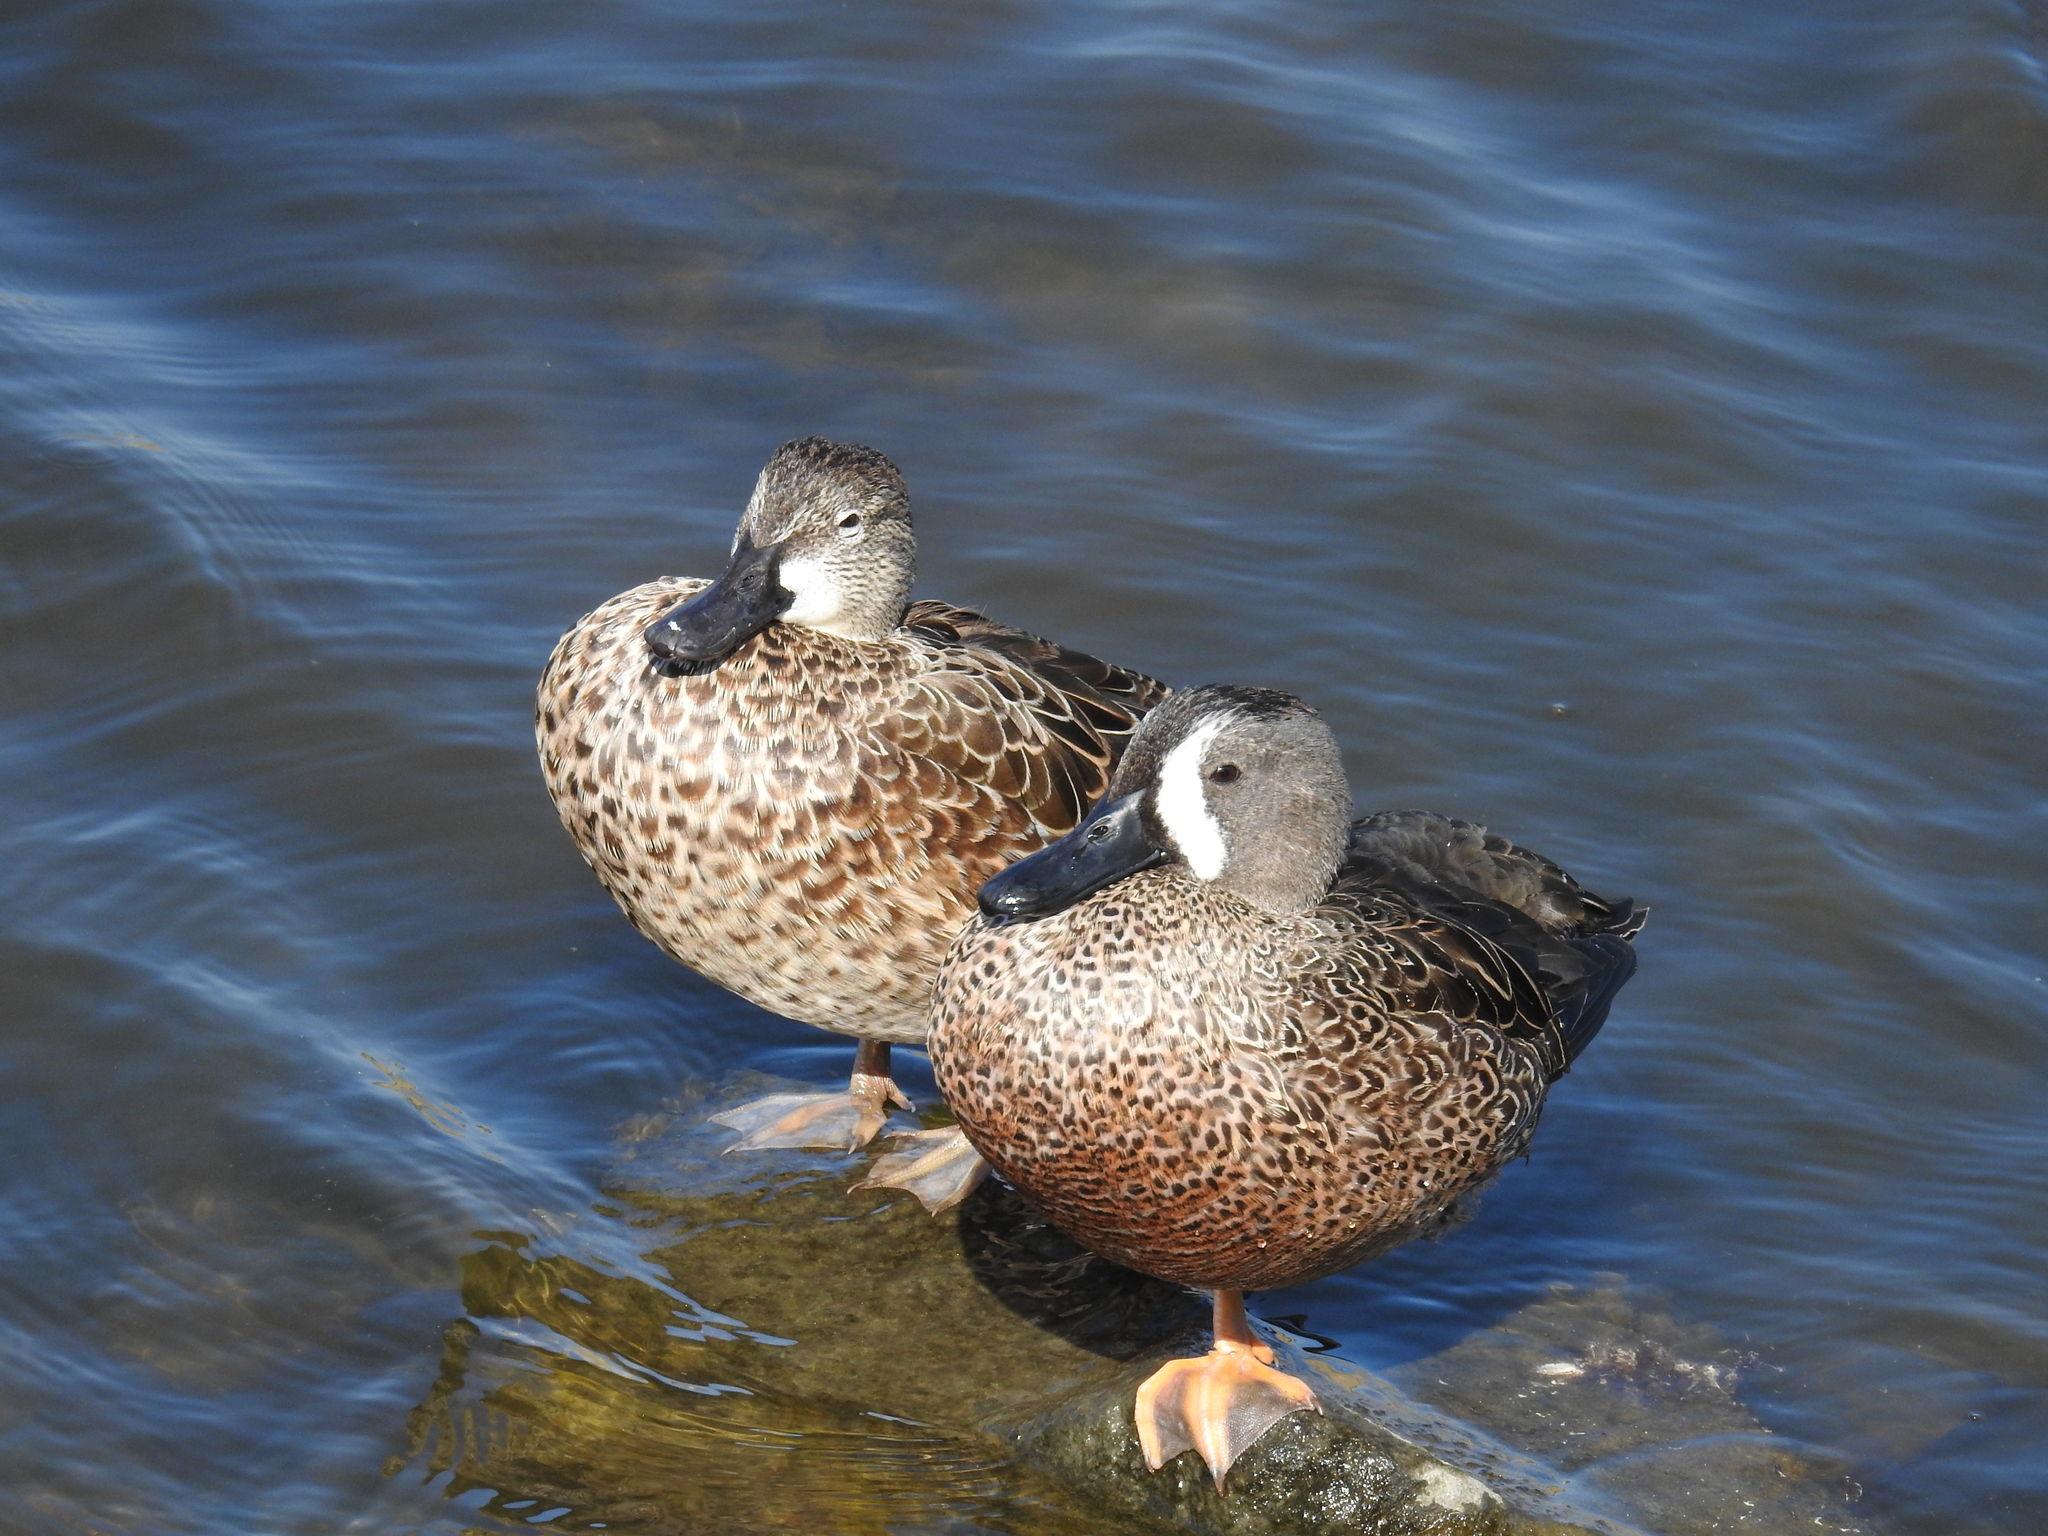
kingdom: Animalia
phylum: Chordata
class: Aves
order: Anseriformes
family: Anatidae
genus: Spatula
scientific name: Spatula discors
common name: Blue-winged teal
